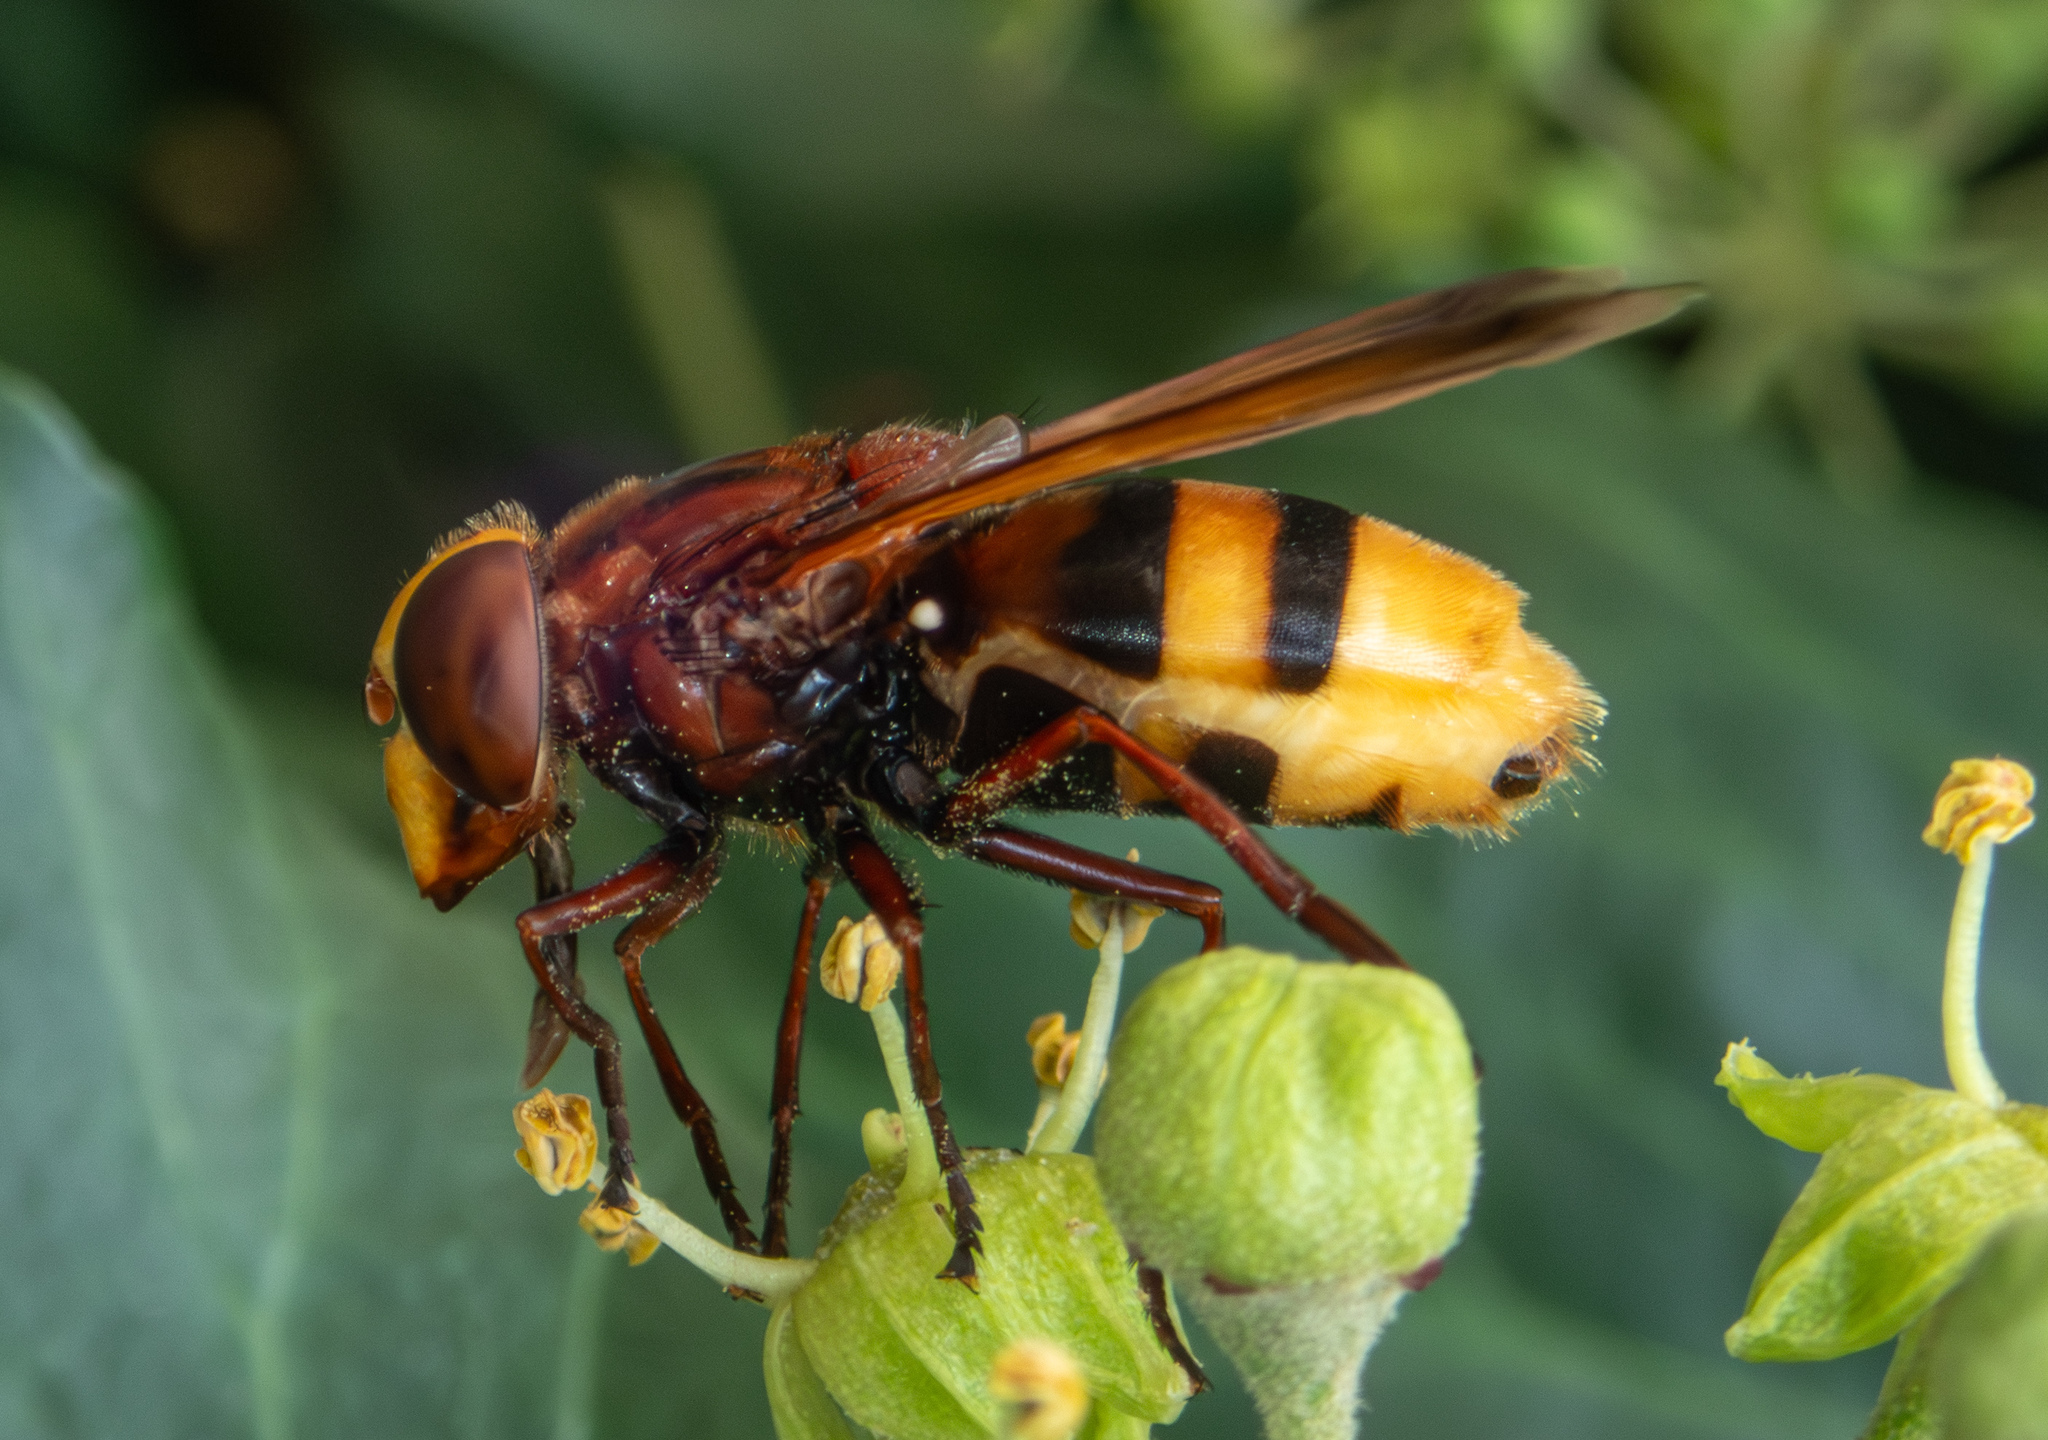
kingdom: Animalia
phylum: Arthropoda
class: Insecta
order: Diptera
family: Syrphidae
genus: Volucella
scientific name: Volucella zonaria
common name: Hornet hoverfly
